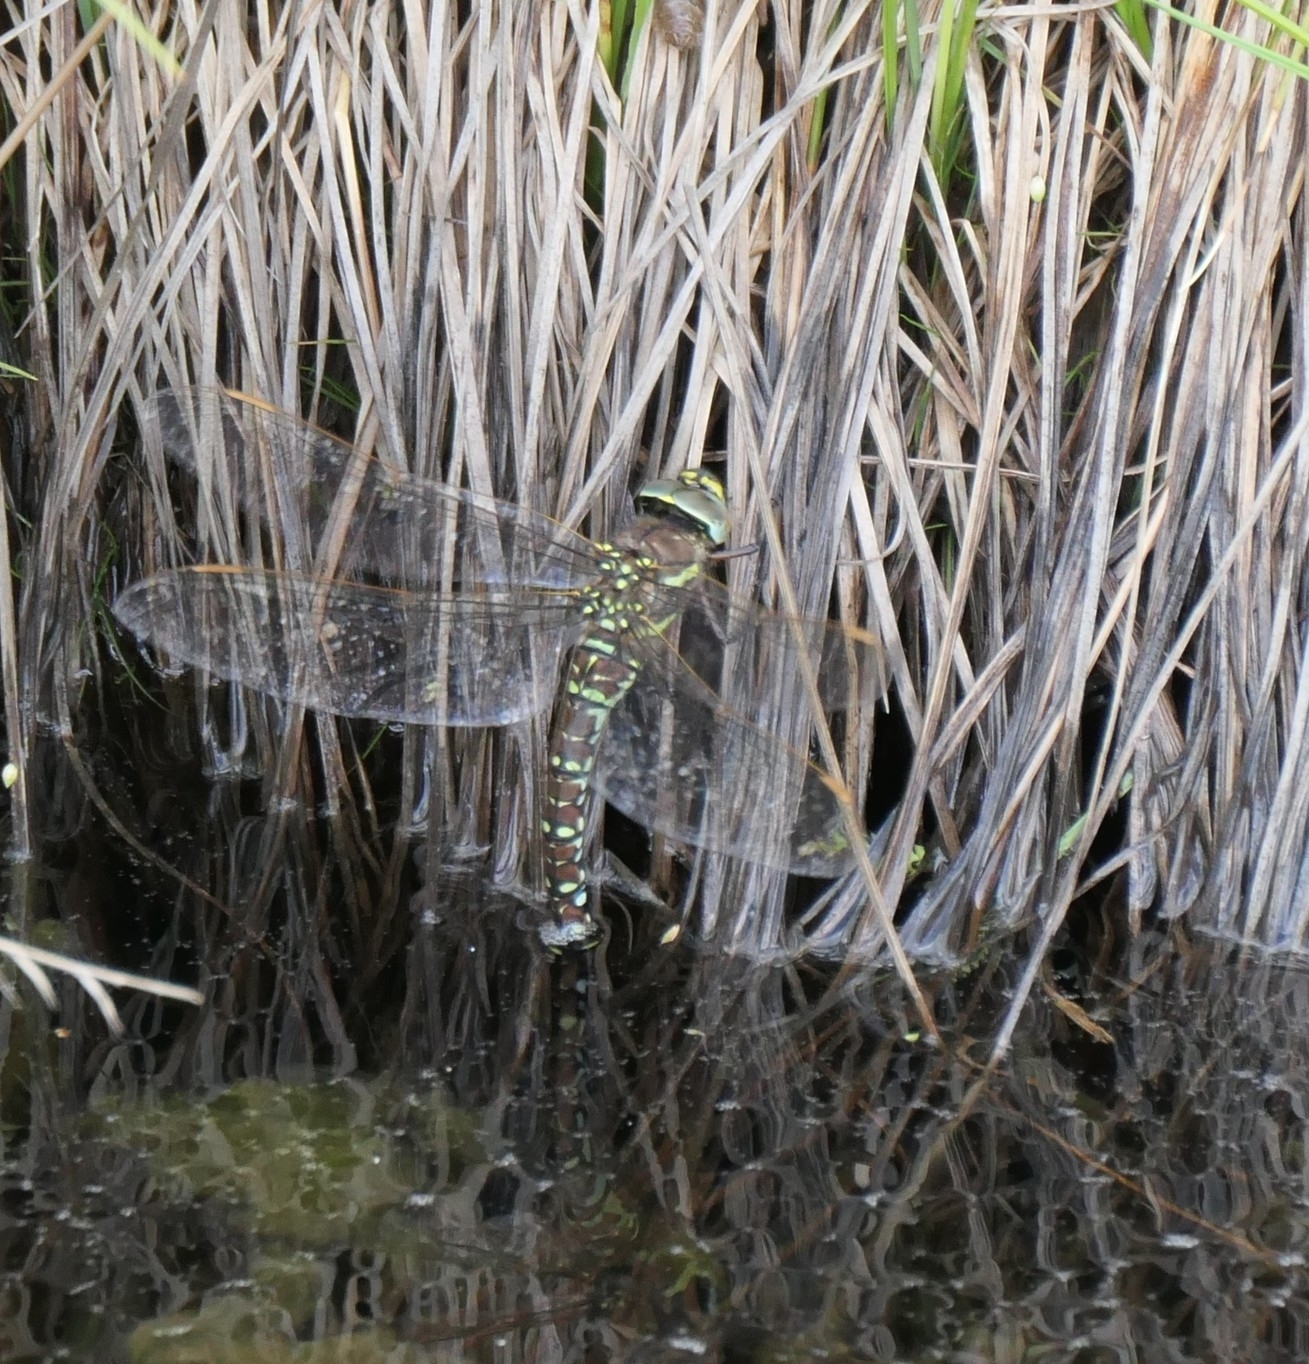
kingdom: Animalia
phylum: Arthropoda
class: Insecta
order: Odonata
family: Aeshnidae
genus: Aeshna
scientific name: Aeshna juncea
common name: Moorland hawker
